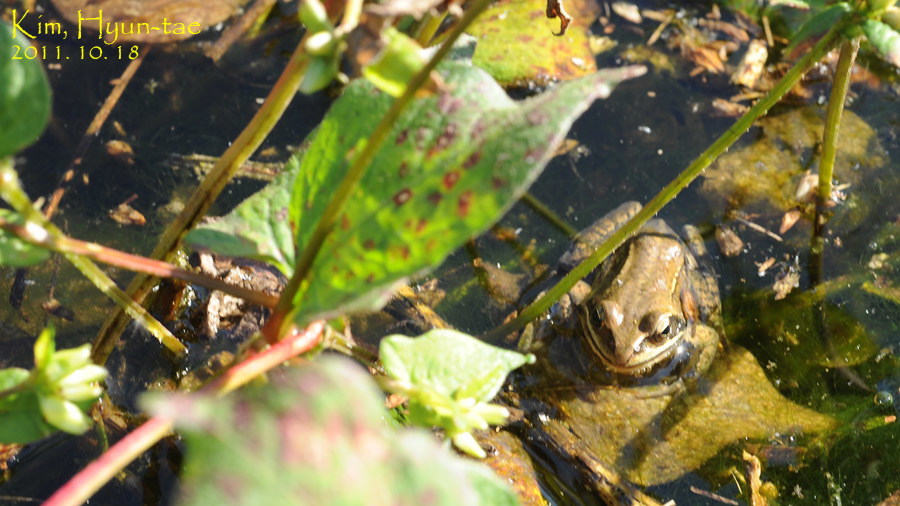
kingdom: Animalia
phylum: Chordata
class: Amphibia
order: Anura
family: Ranidae
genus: Rana
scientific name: Rana coreana
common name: Korean brown frog
